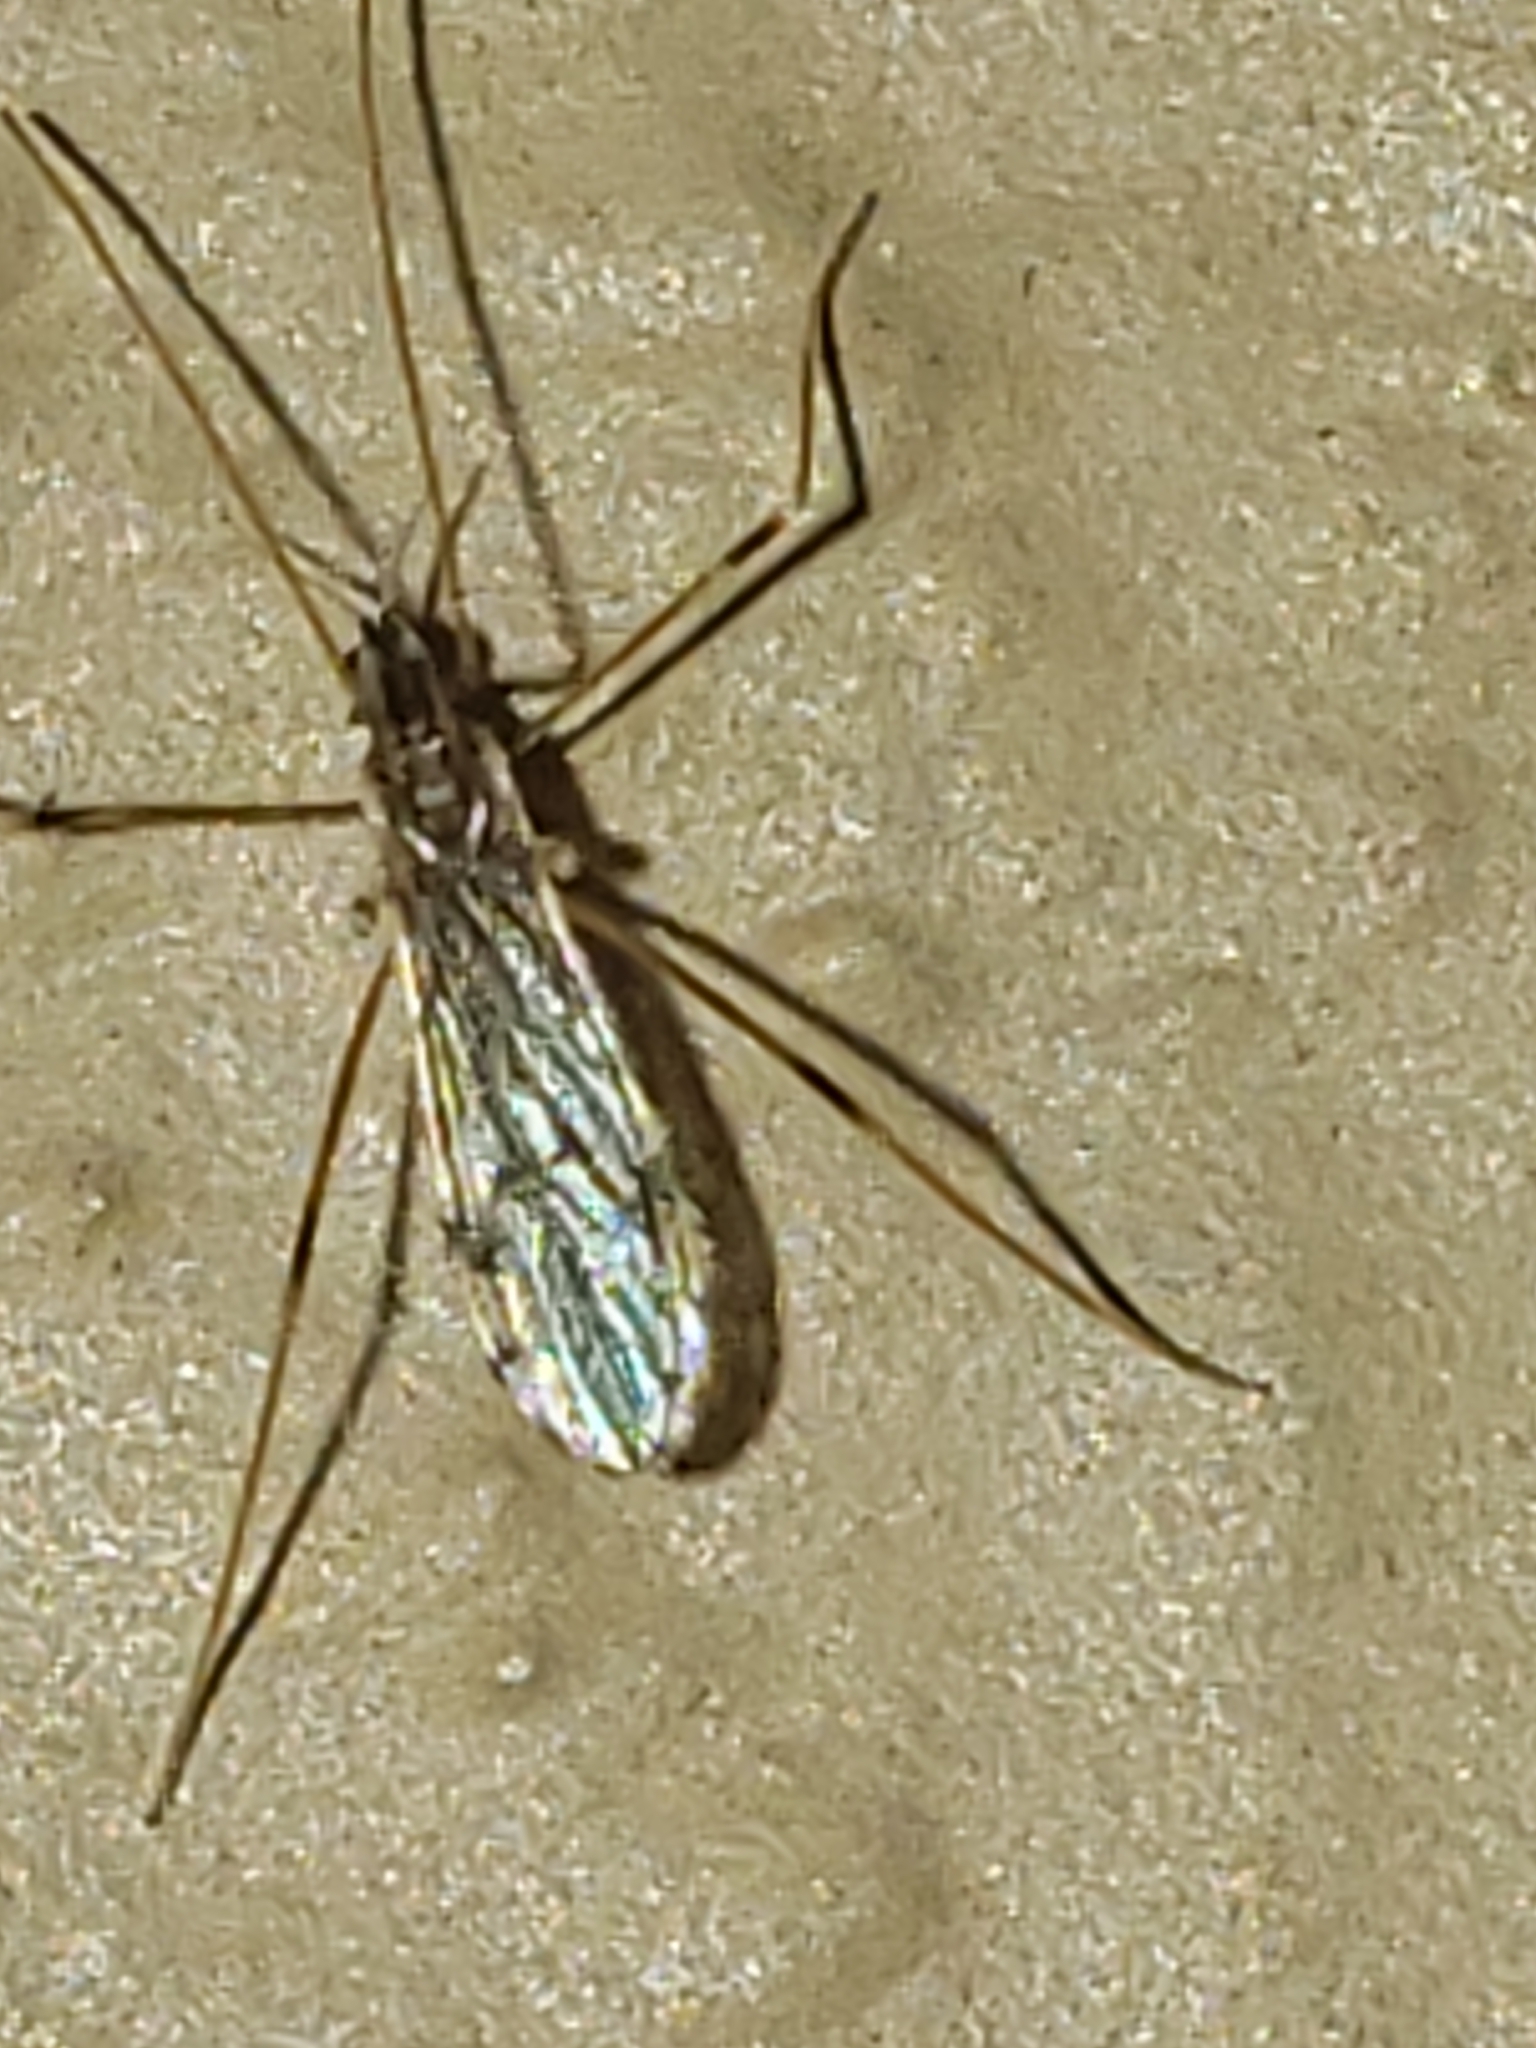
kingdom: Animalia
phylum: Arthropoda
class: Insecta
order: Diptera
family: Limoniidae
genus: Erioptera
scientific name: Erioptera parva
